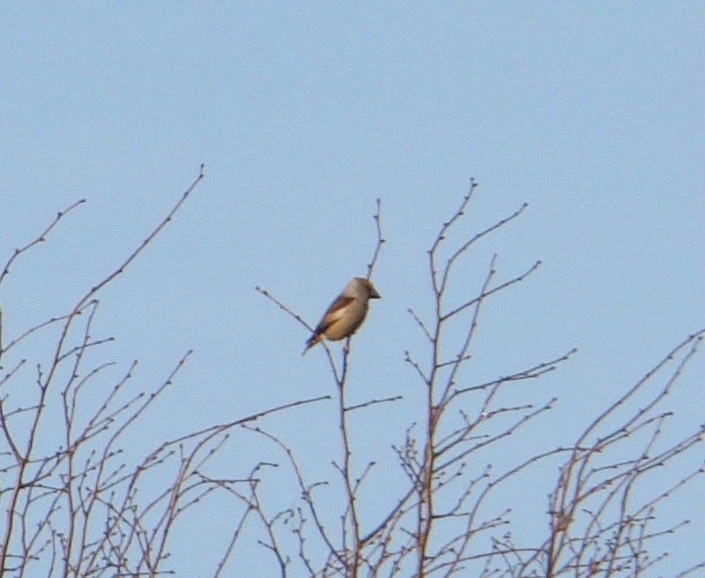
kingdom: Animalia
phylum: Chordata
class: Aves
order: Passeriformes
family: Fringillidae
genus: Coccothraustes
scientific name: Coccothraustes coccothraustes
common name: Hawfinch
